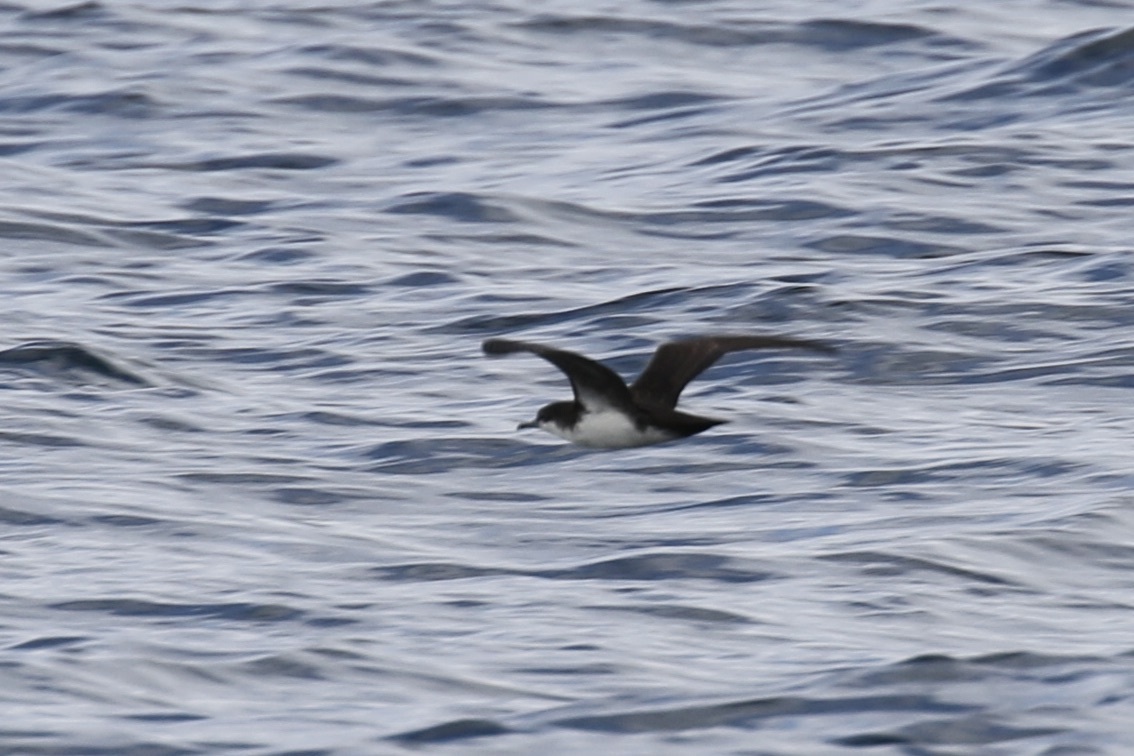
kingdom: Animalia
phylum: Chordata
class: Aves
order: Procellariiformes
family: Procellariidae
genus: Puffinus
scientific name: Puffinus subalaris
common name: Galapagos shearwater
